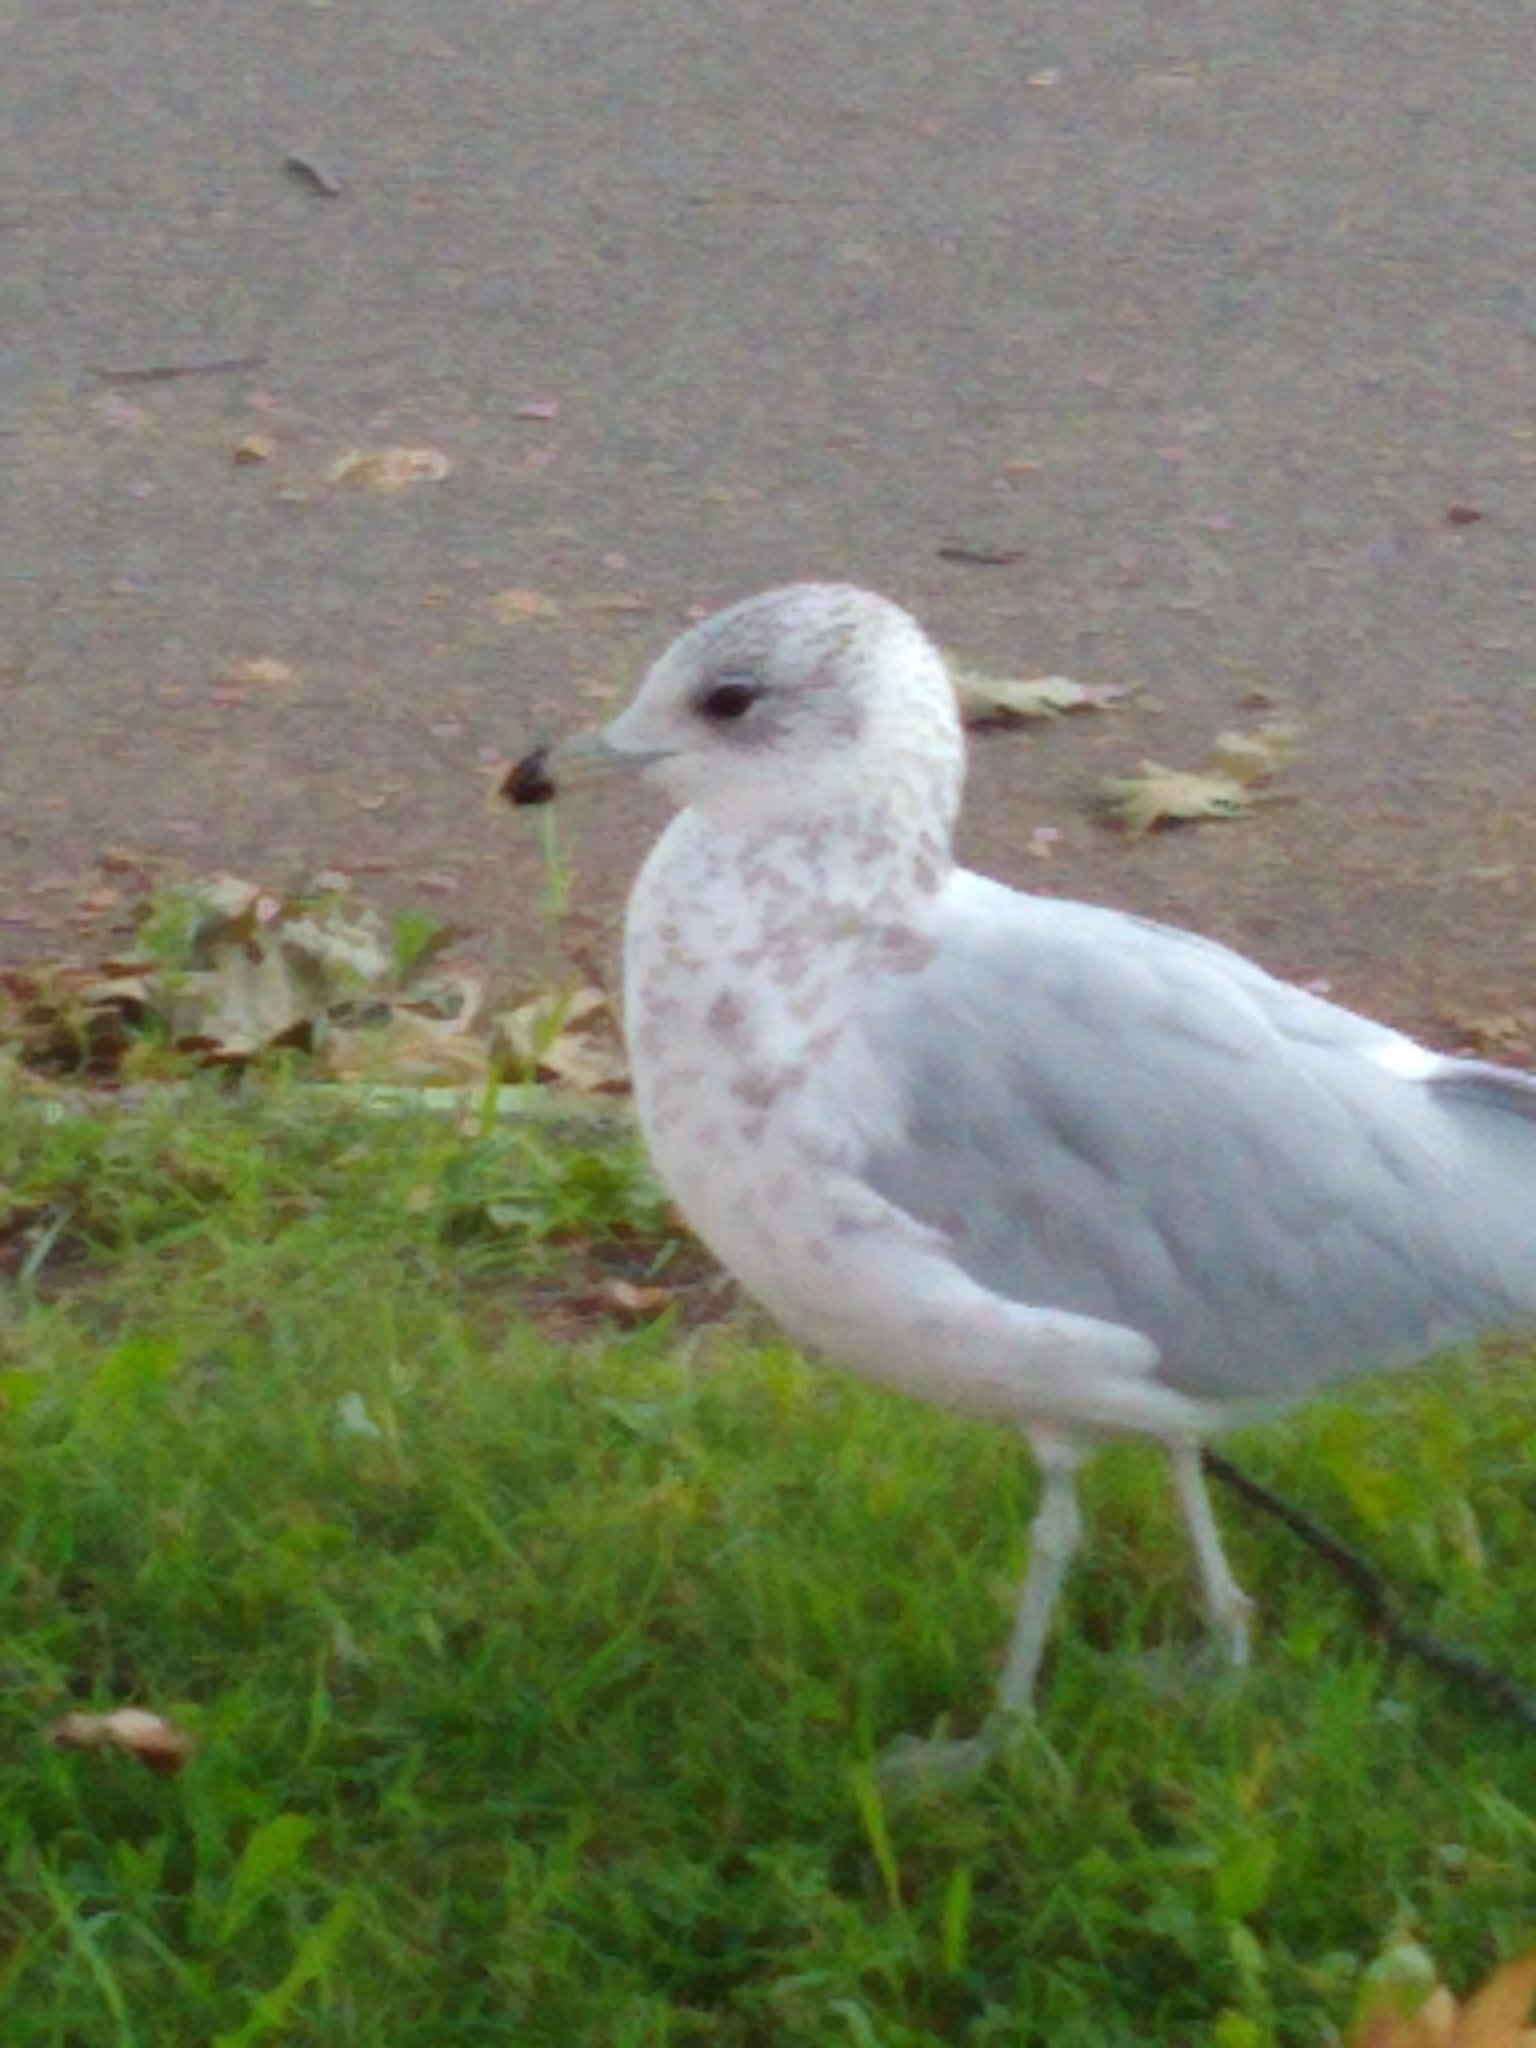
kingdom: Animalia
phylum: Chordata
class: Aves
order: Charadriiformes
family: Laridae
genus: Larus
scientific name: Larus delawarensis
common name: Ring-billed gull
